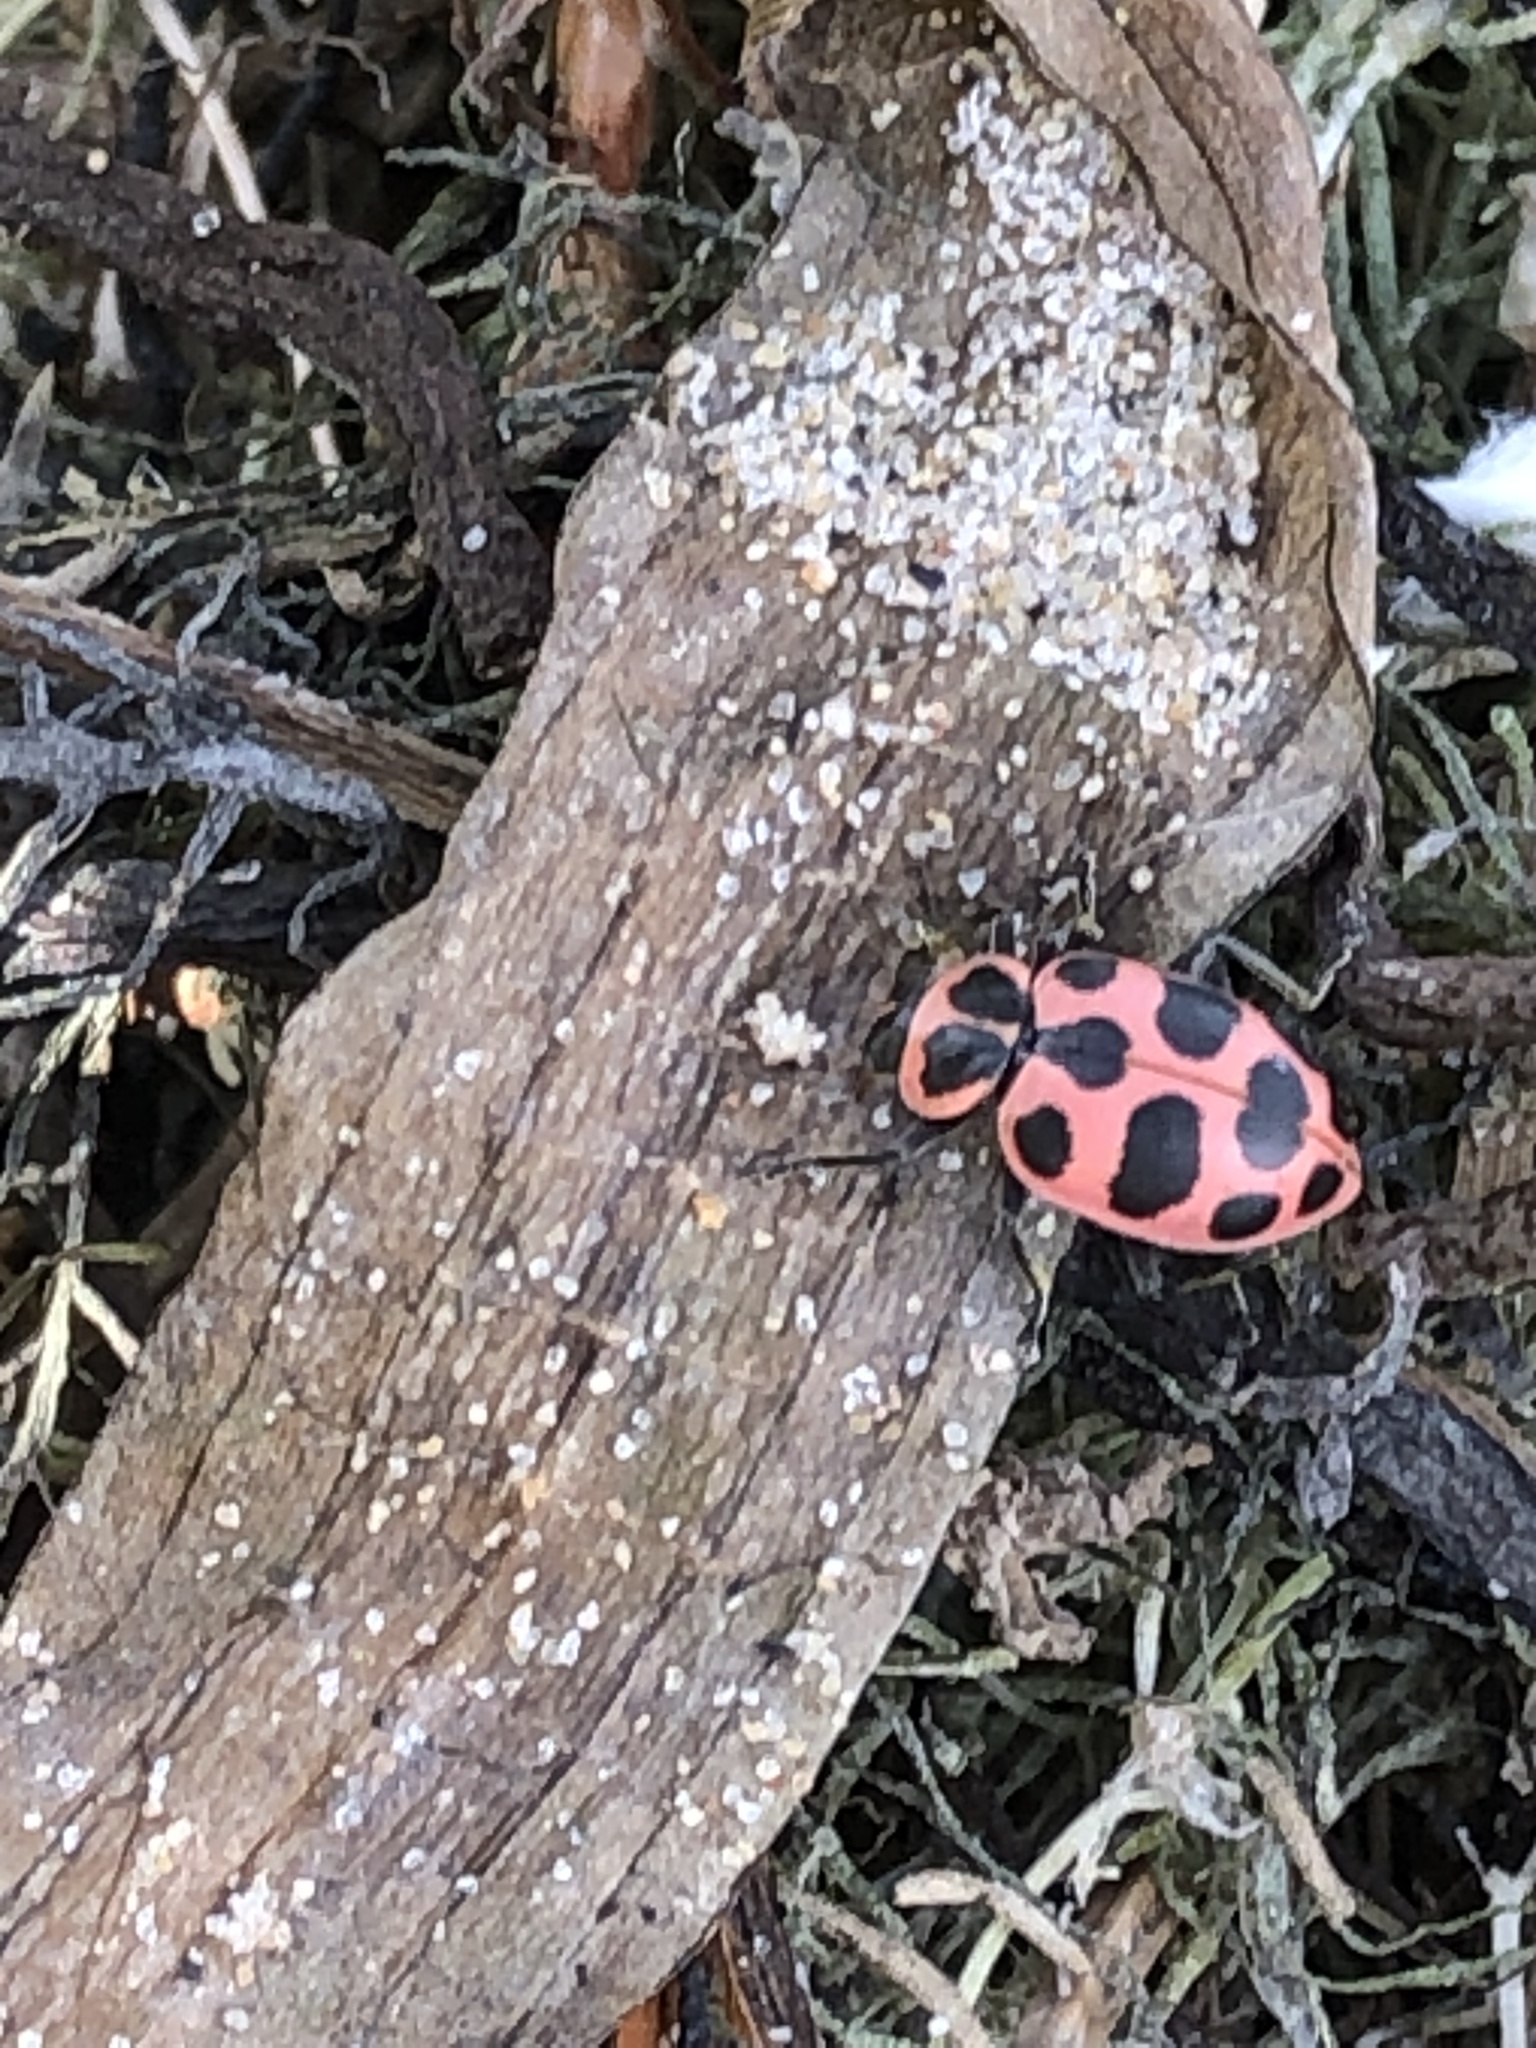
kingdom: Animalia
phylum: Arthropoda
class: Insecta
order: Coleoptera
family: Coccinellidae
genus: Coleomegilla
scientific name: Coleomegilla maculata
